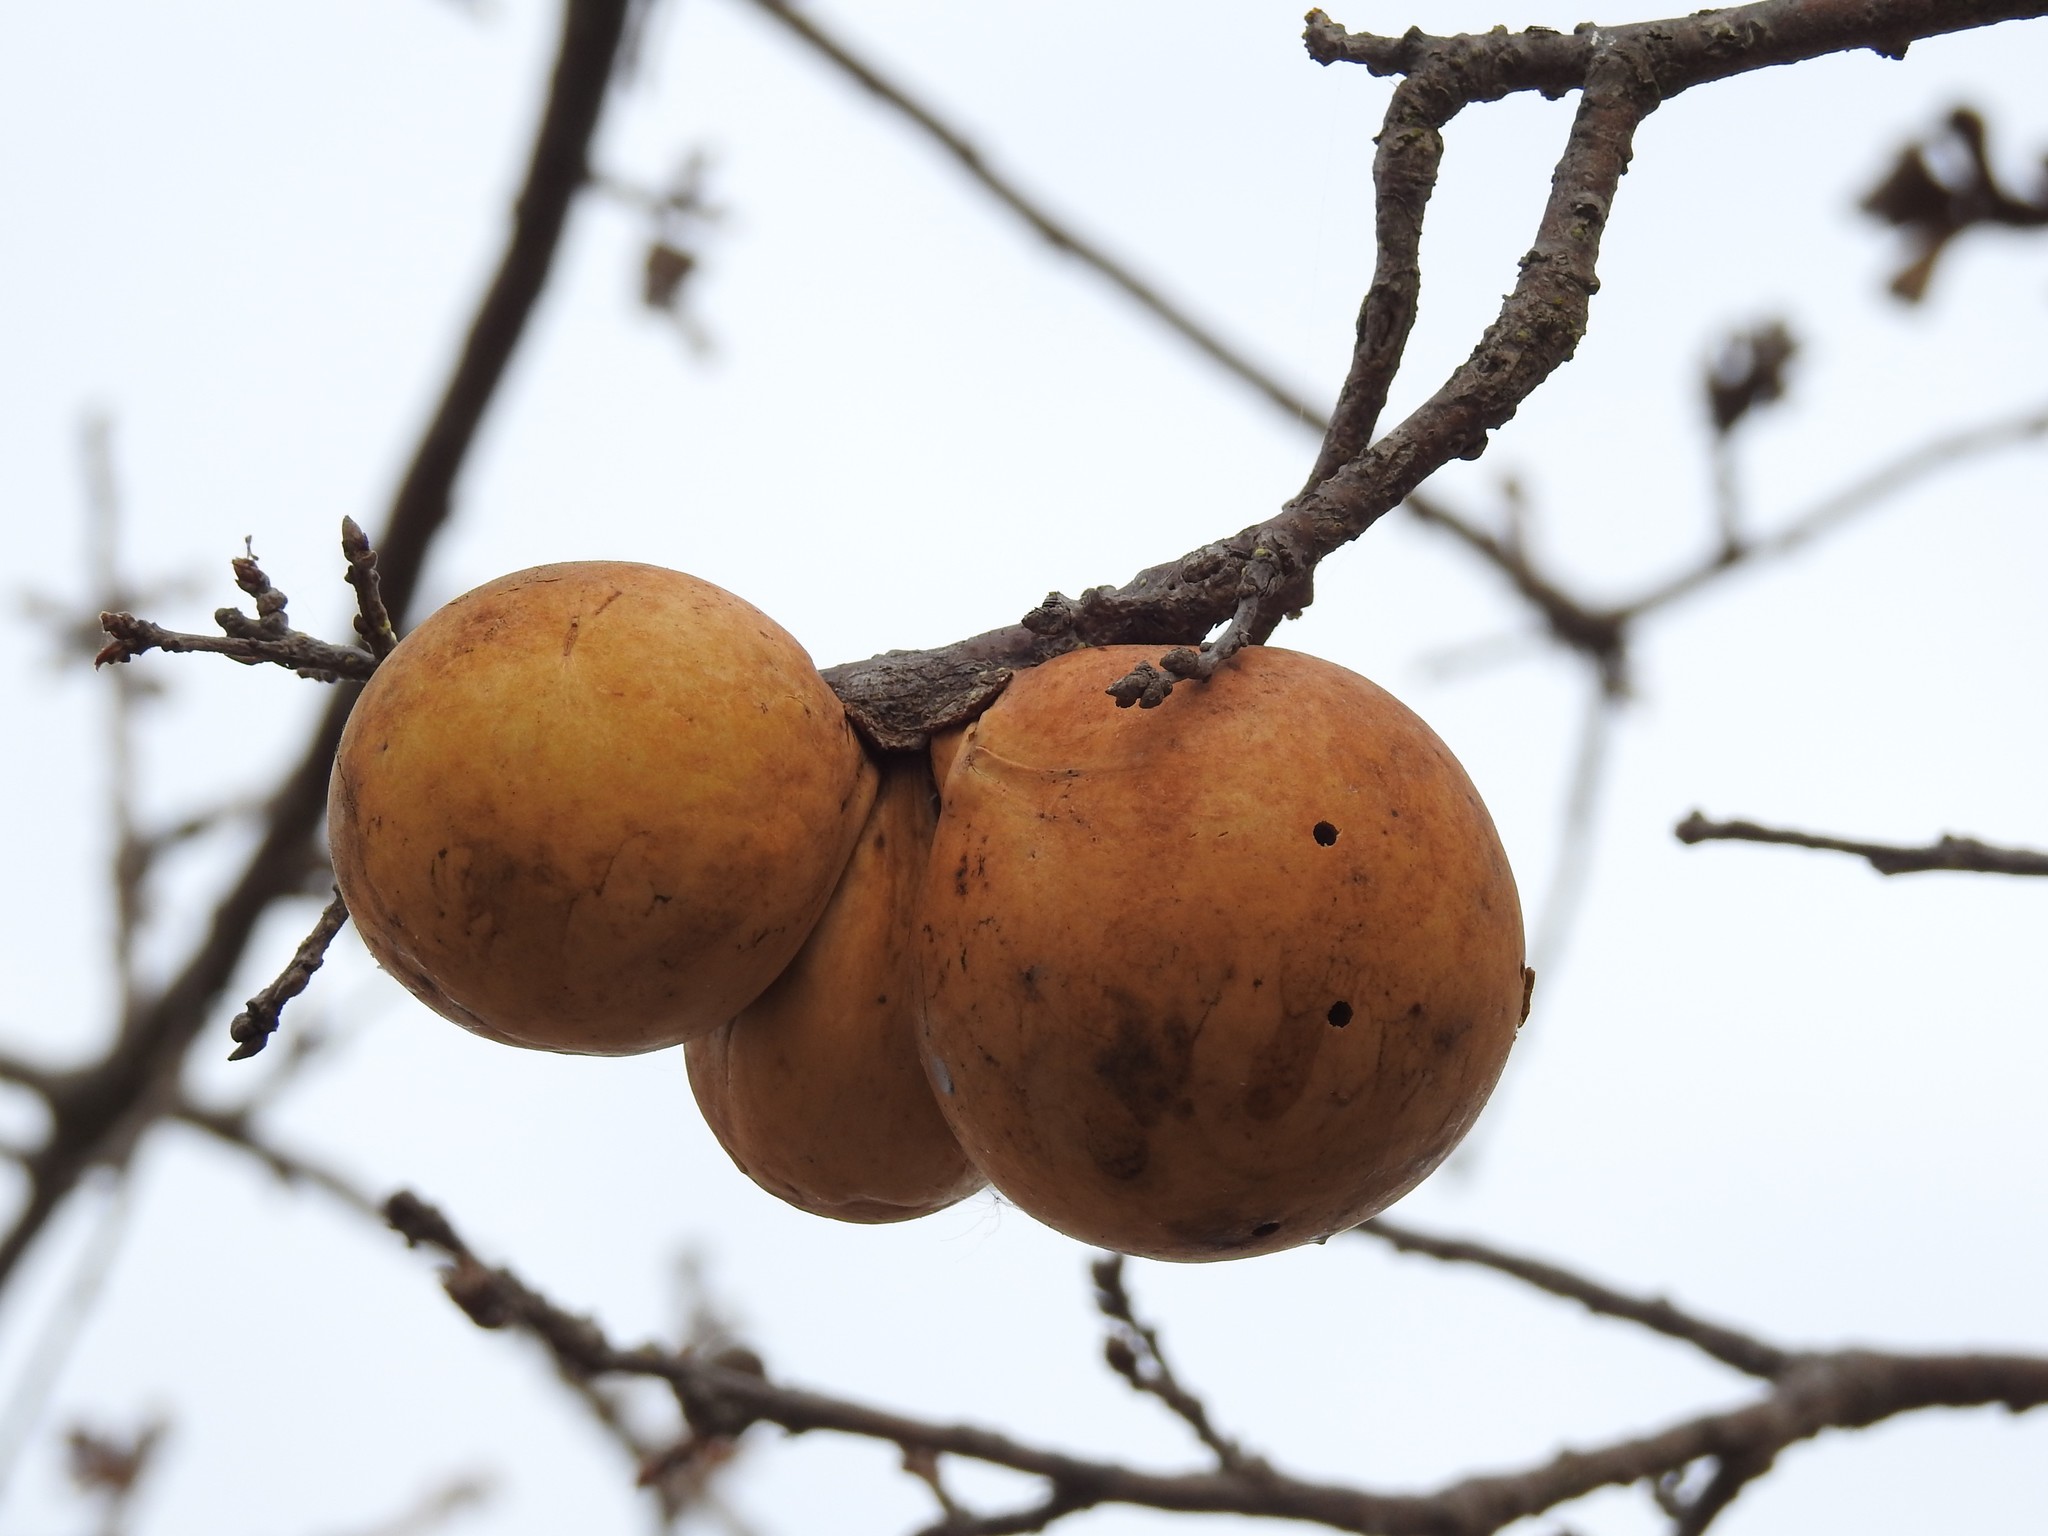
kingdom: Animalia
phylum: Arthropoda
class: Insecta
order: Hymenoptera
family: Cynipidae
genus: Andricus
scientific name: Andricus quercuscalifornicus
